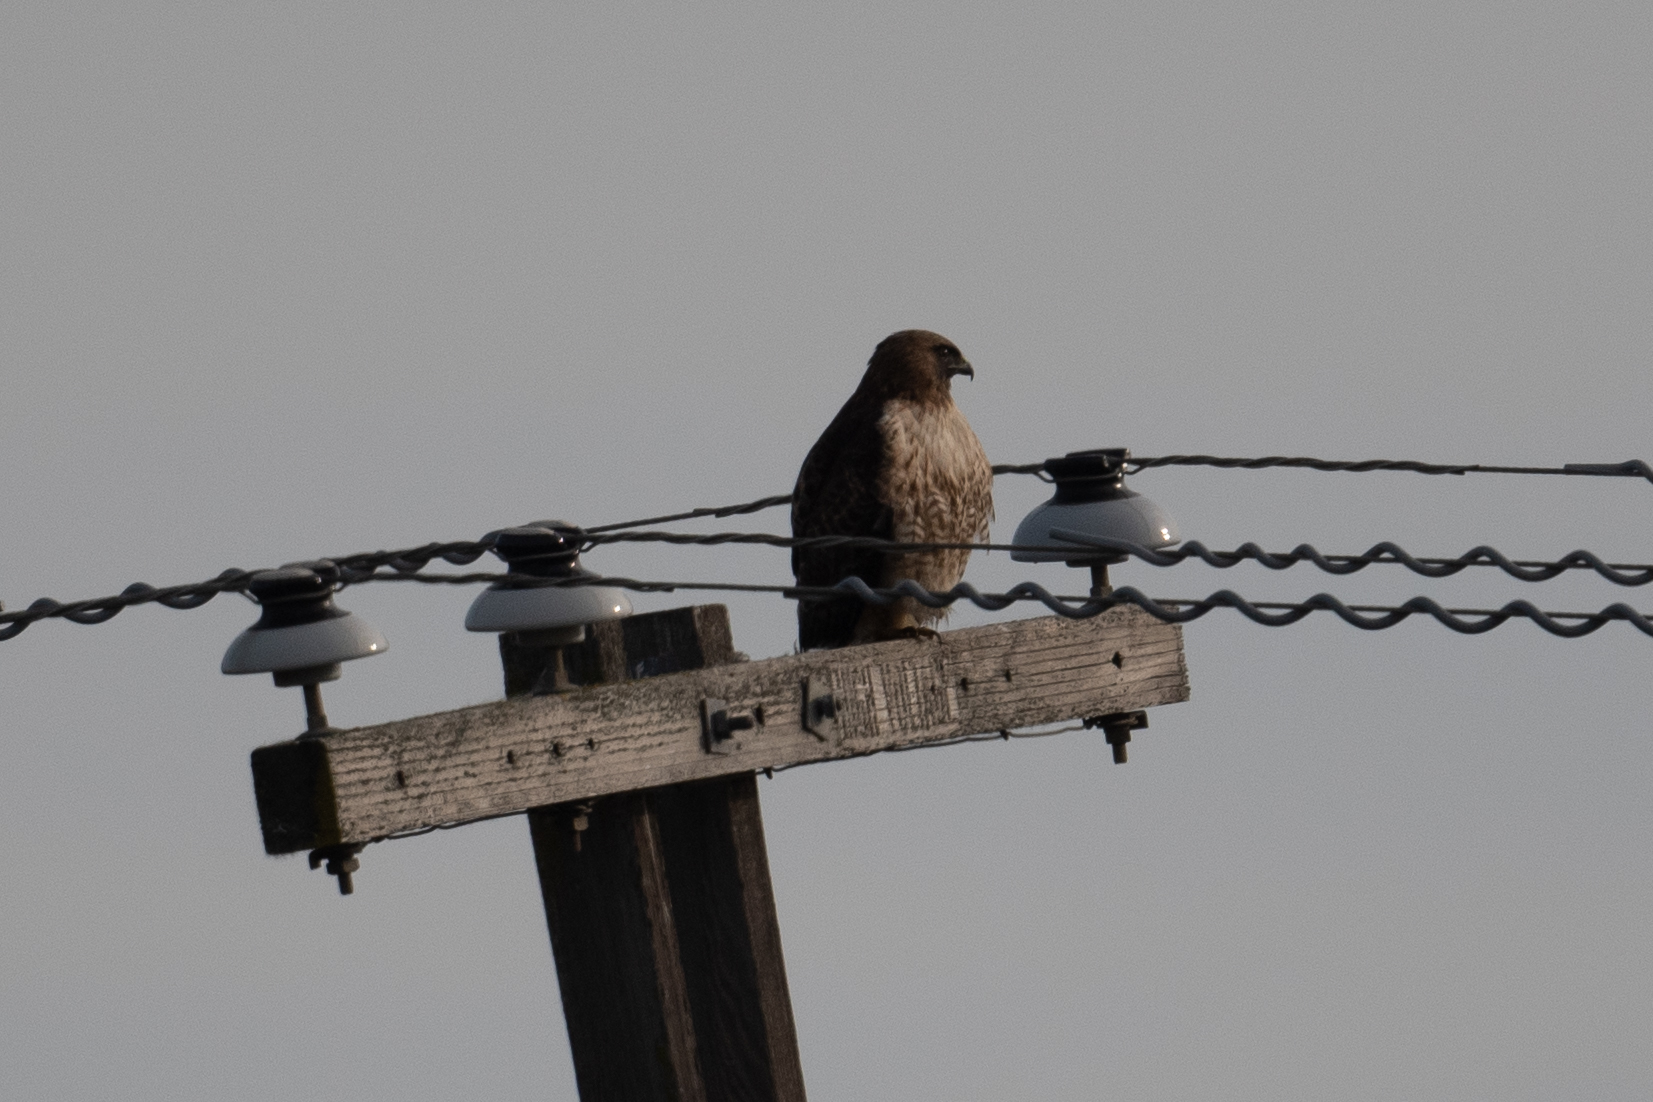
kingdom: Animalia
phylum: Chordata
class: Aves
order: Accipitriformes
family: Accipitridae
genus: Buteo
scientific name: Buteo jamaicensis
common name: Red-tailed hawk
